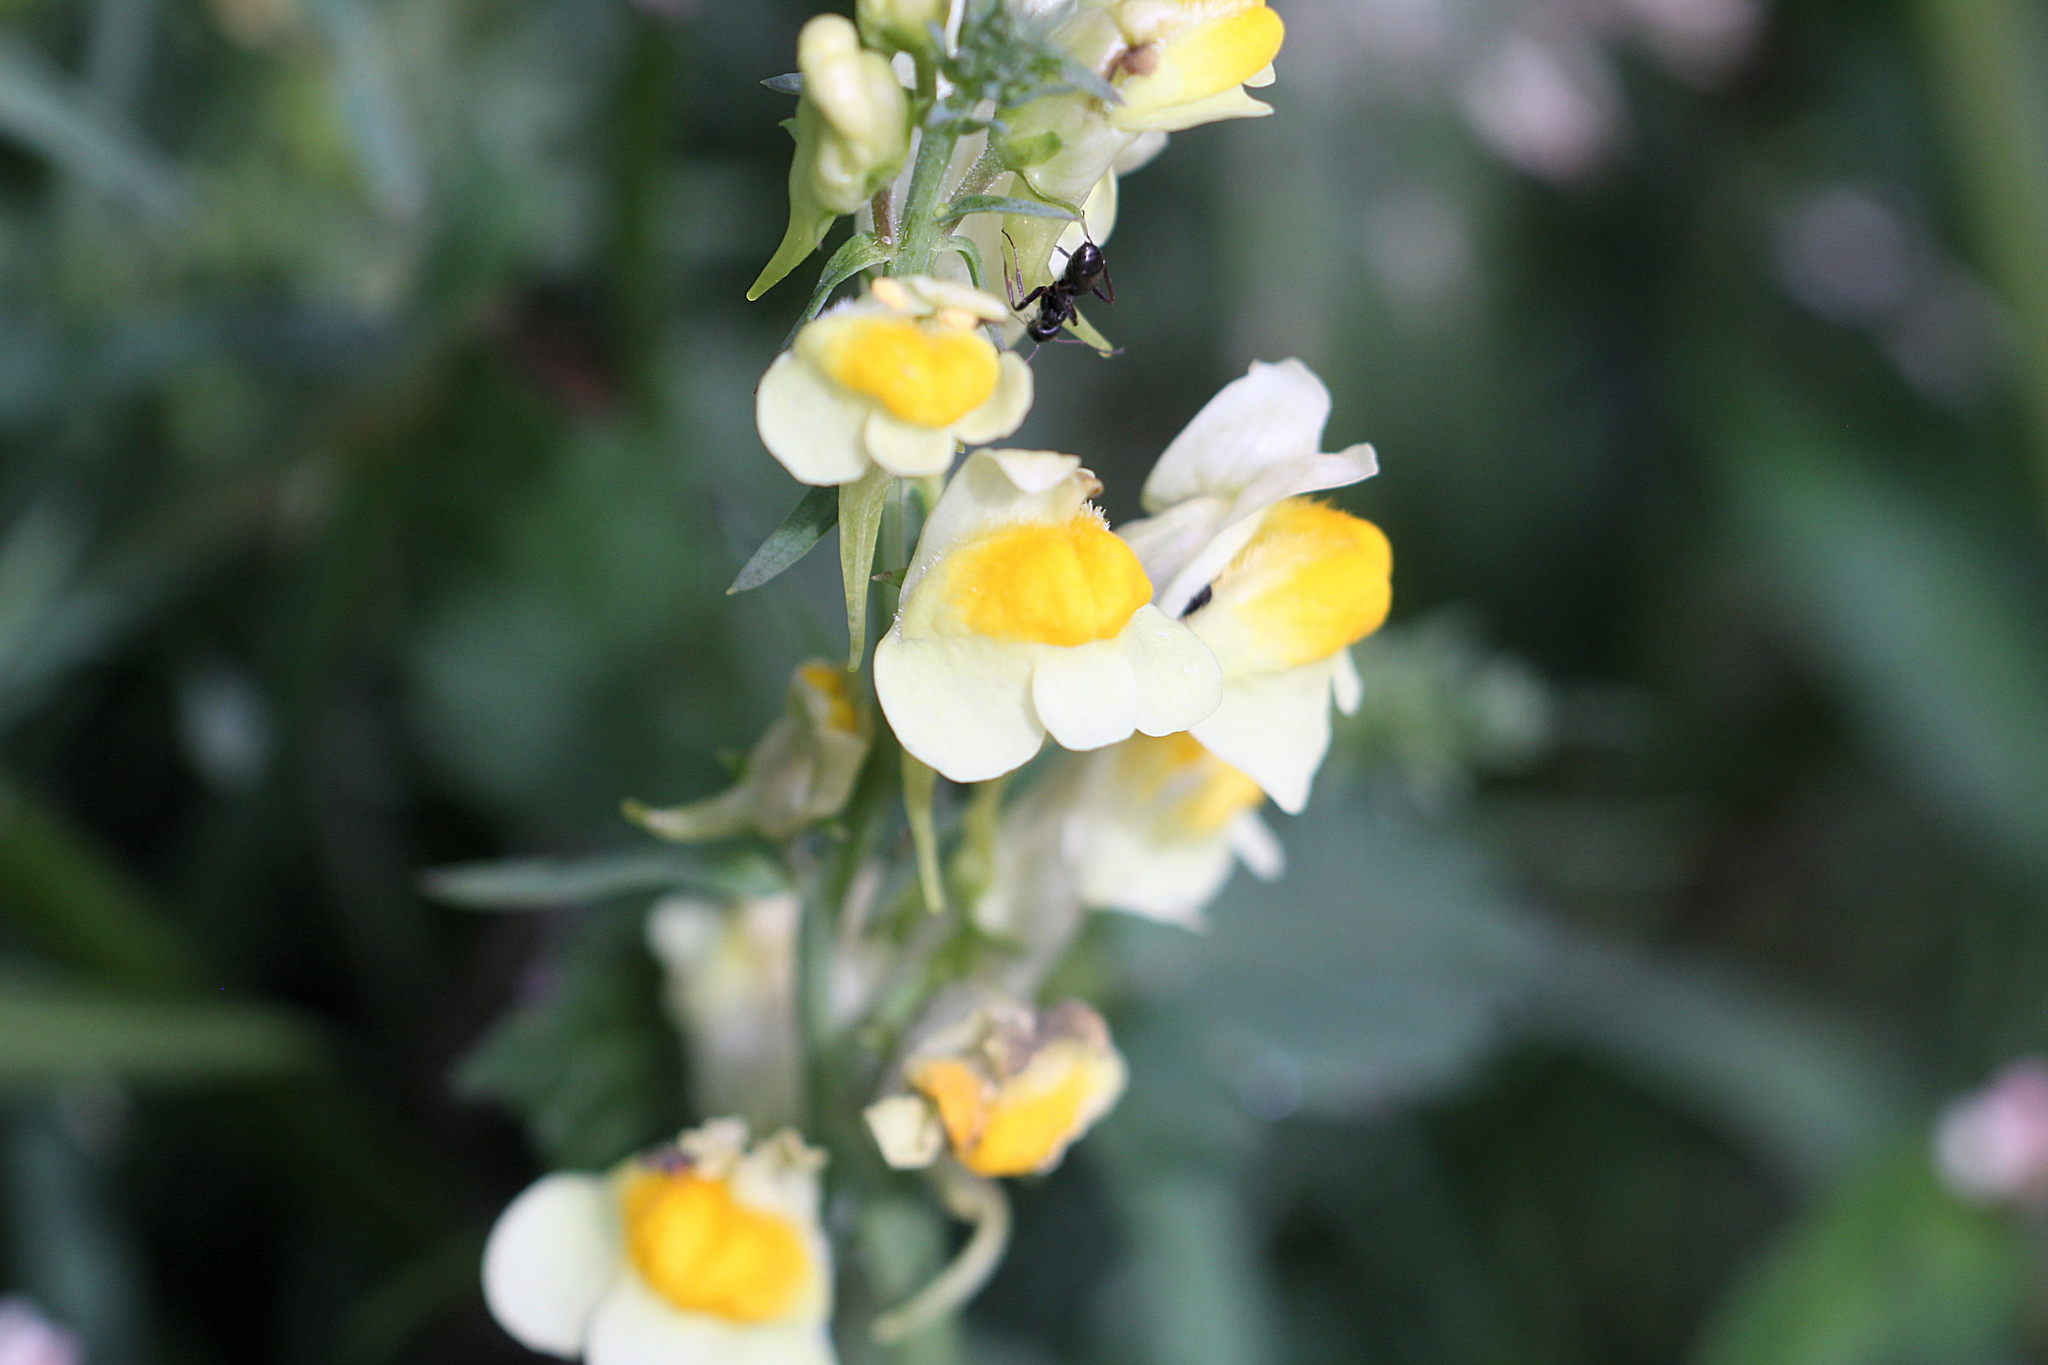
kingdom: Plantae
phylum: Tracheophyta
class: Magnoliopsida
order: Lamiales
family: Plantaginaceae
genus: Linaria
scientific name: Linaria vulgaris
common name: Butter and eggs
